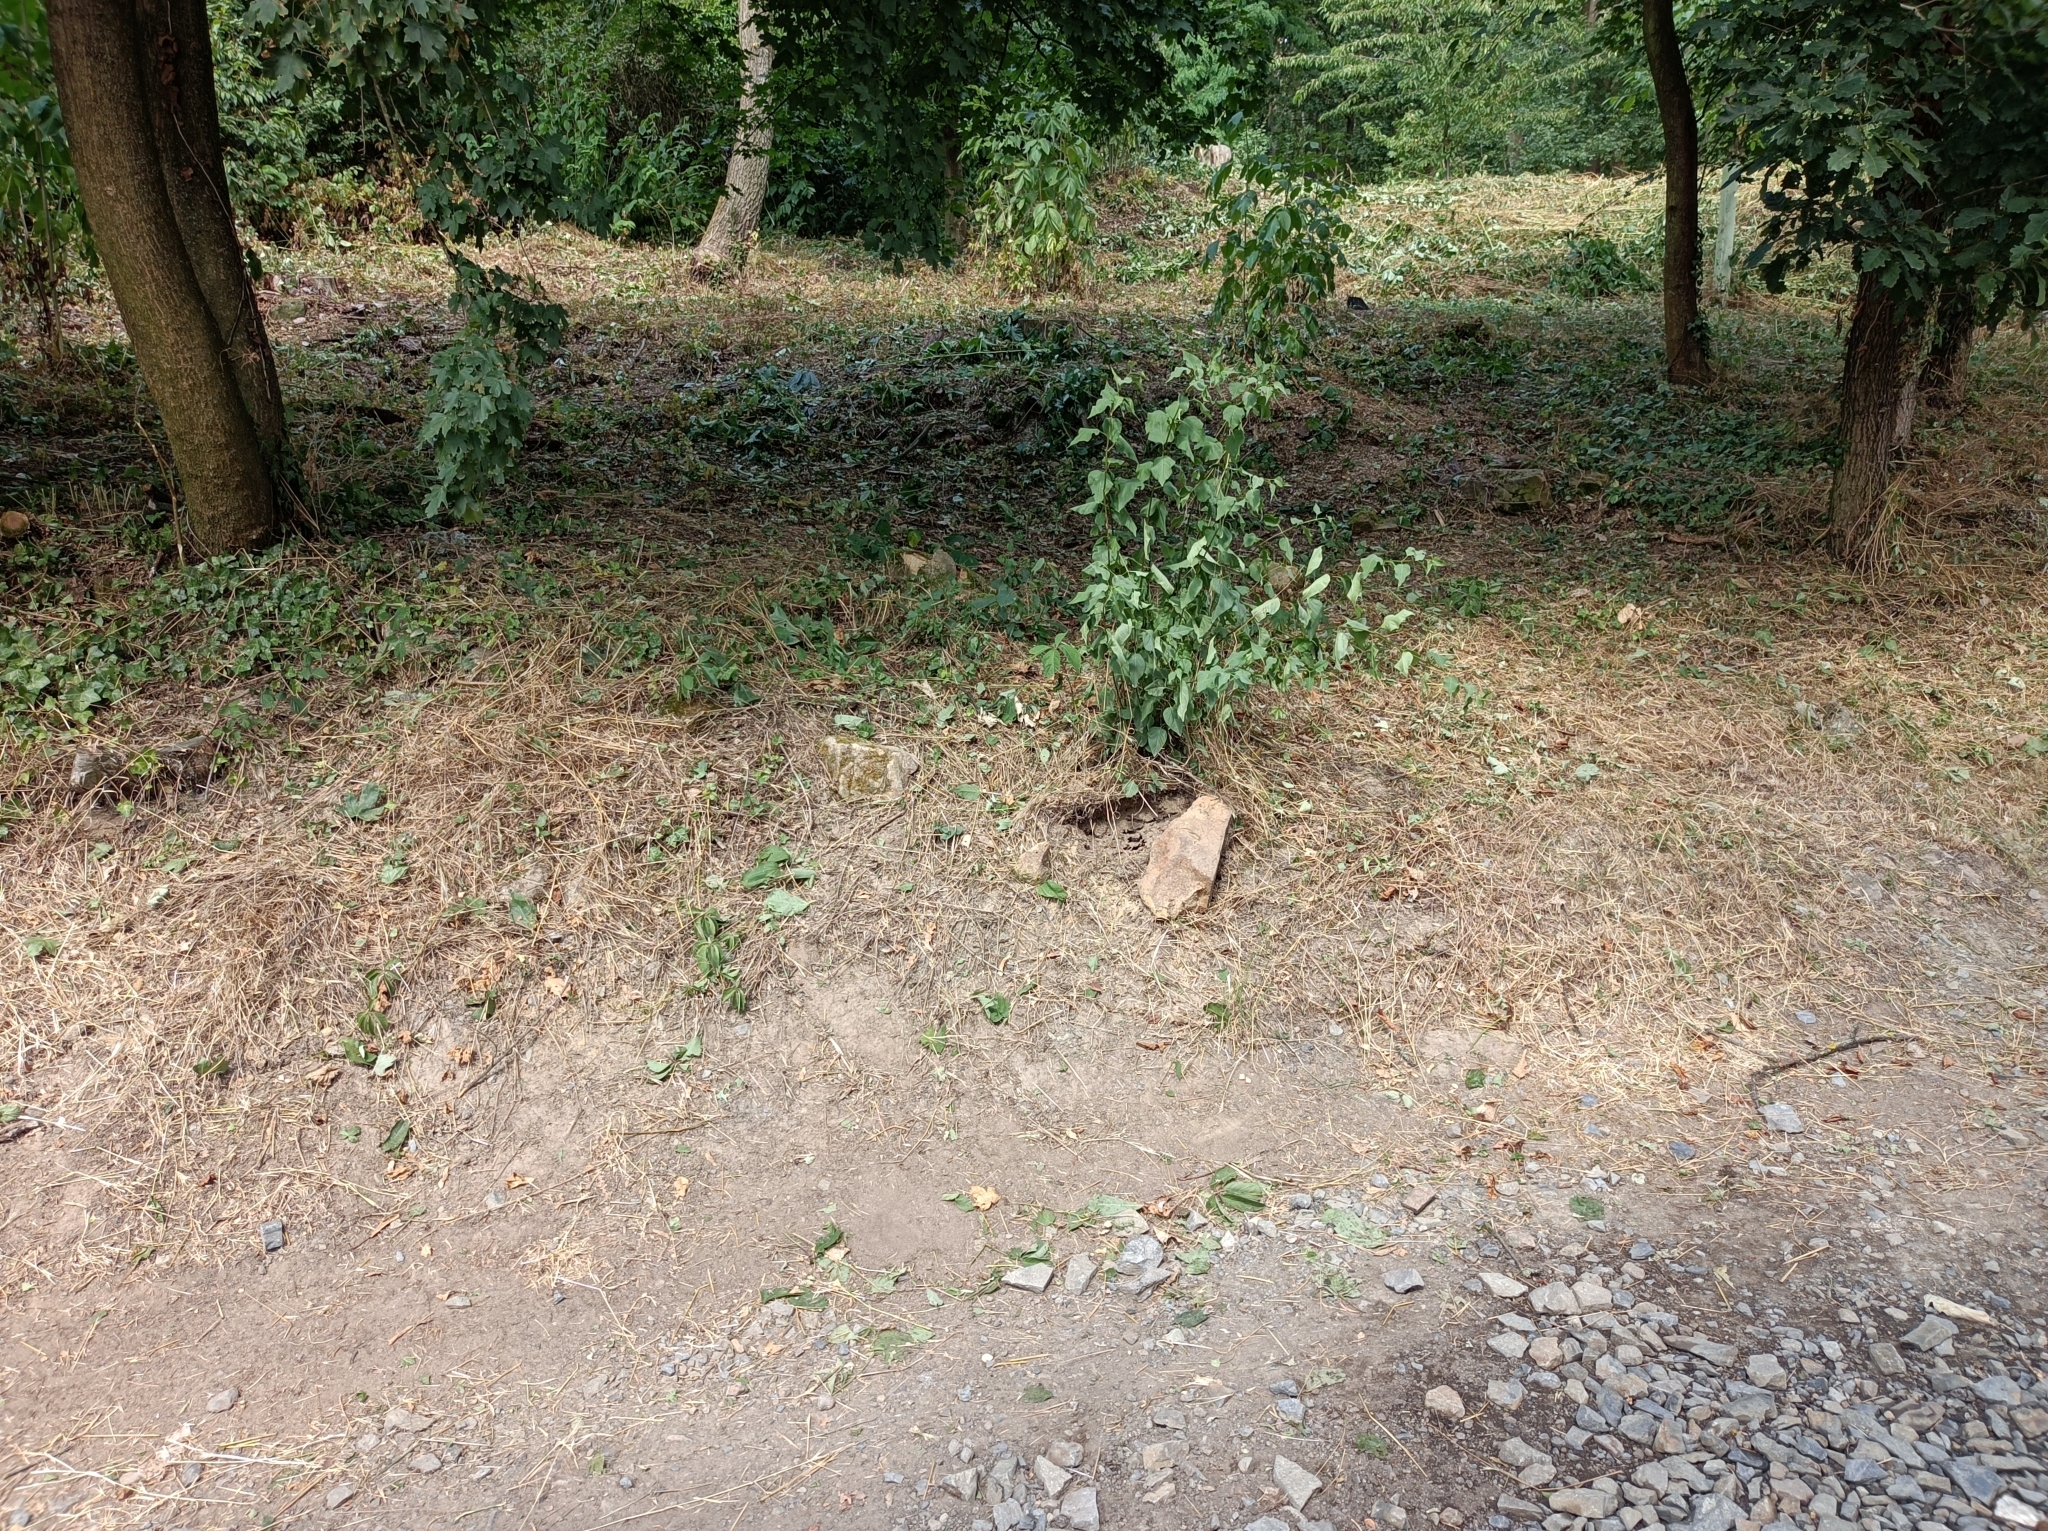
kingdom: Animalia
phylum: Arthropoda
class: Insecta
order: Hymenoptera
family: Formicidae
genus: Formica
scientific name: Formica fusca
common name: Silky ant
